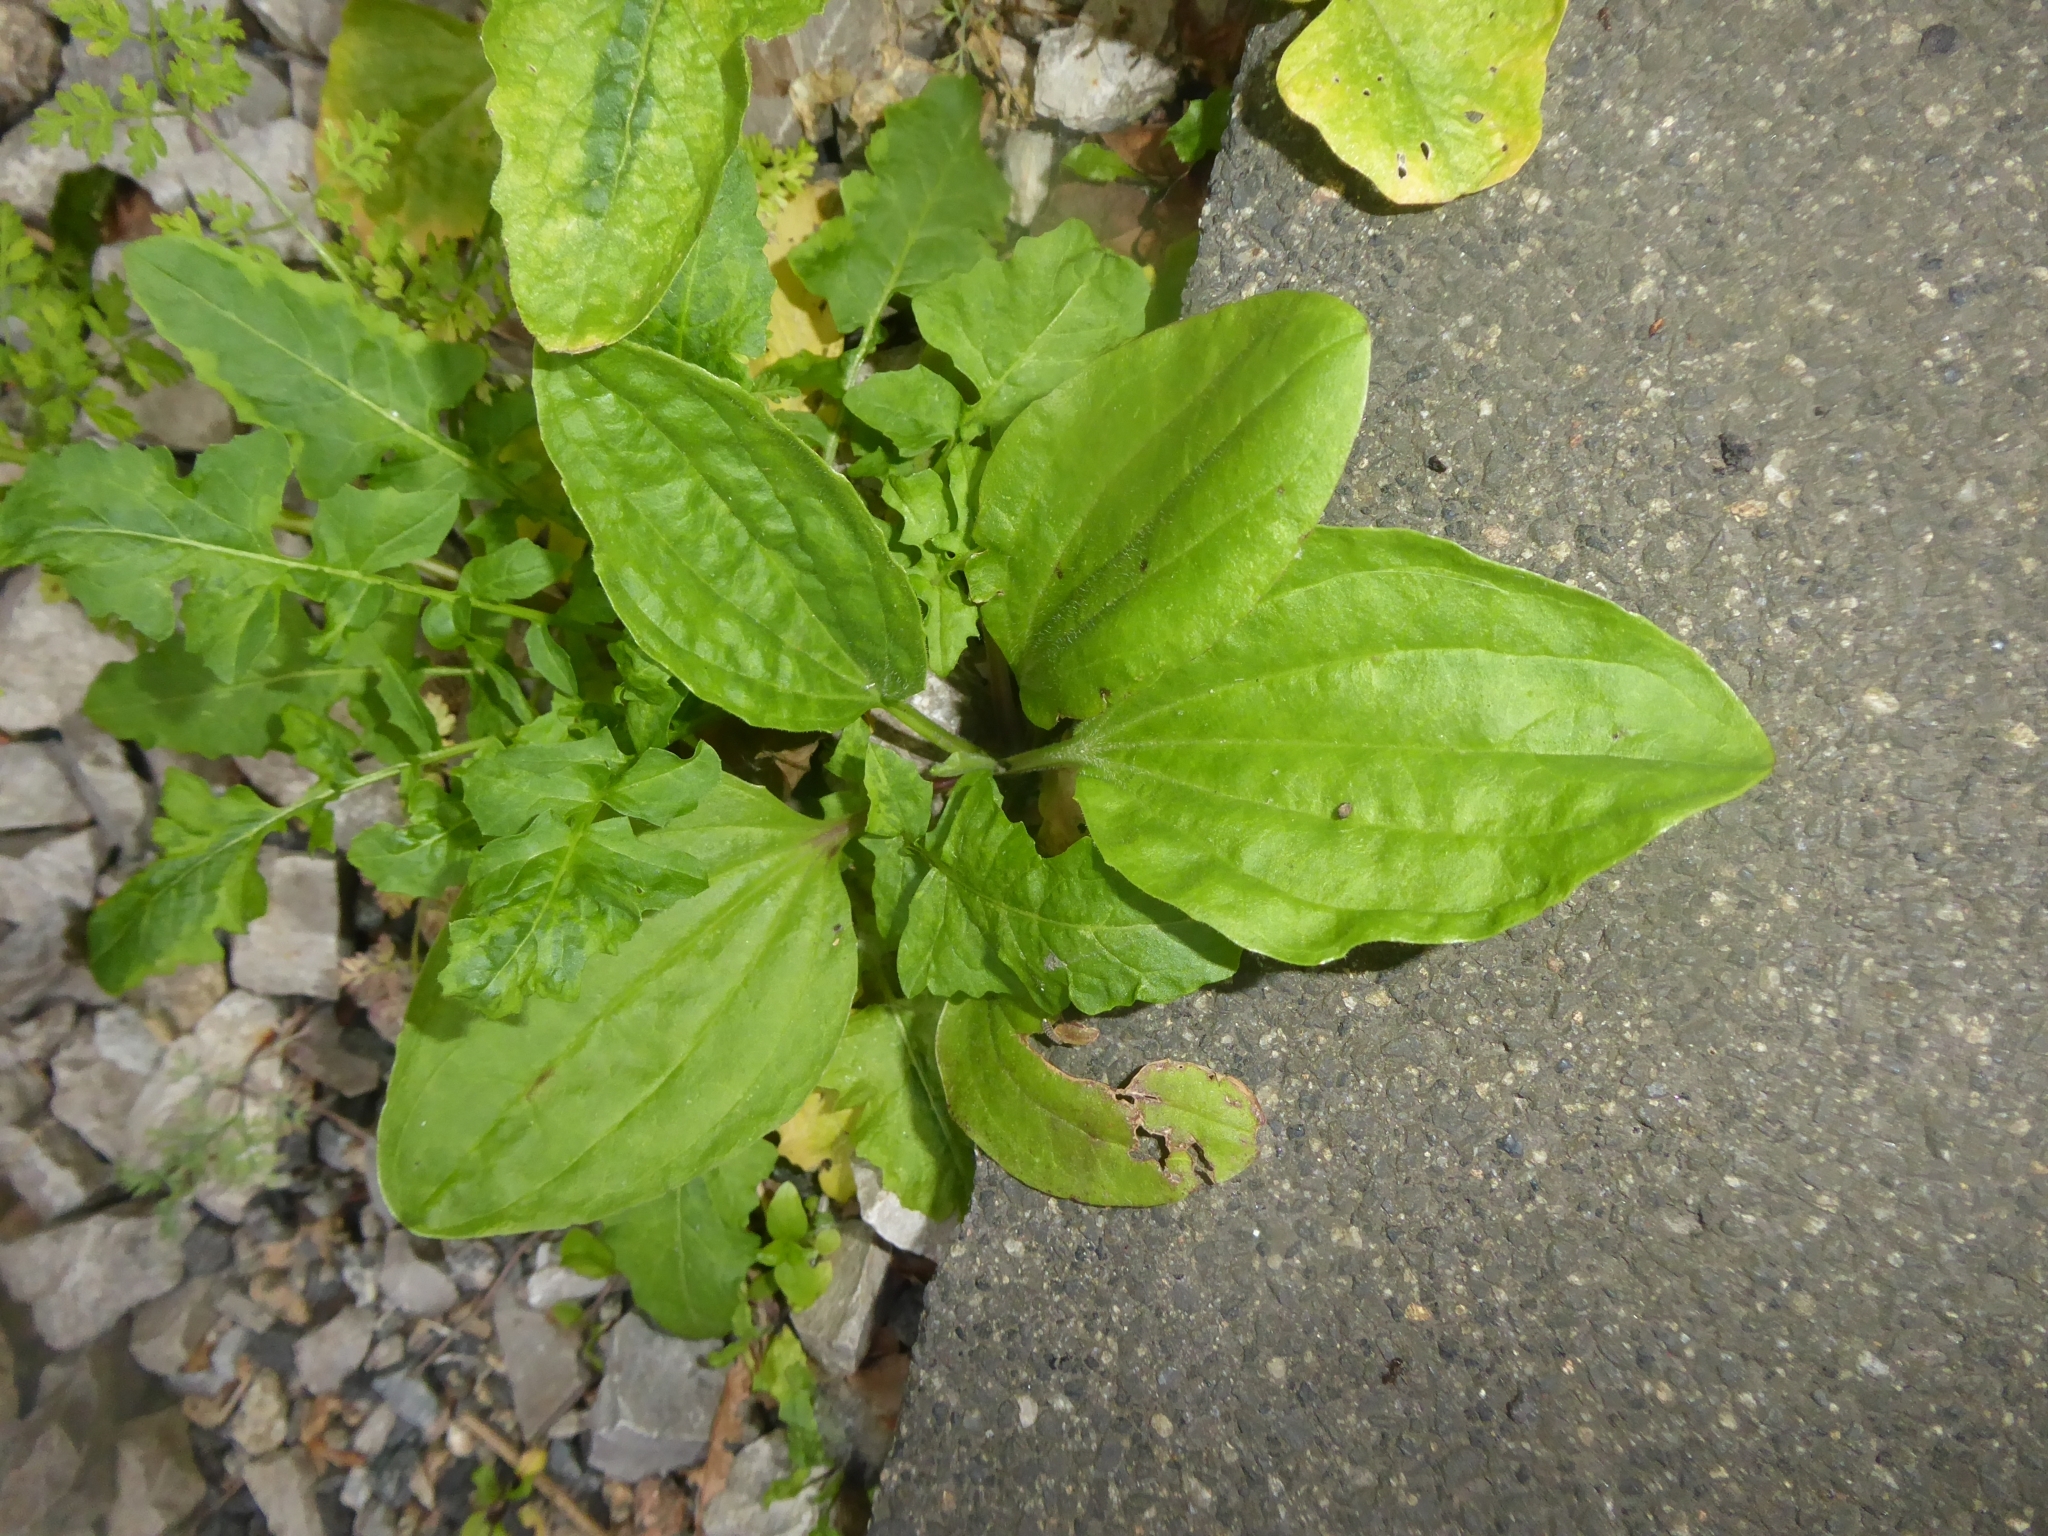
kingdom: Plantae
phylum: Tracheophyta
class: Magnoliopsida
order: Lamiales
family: Plantaginaceae
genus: Plantago
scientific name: Plantago major
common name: Common plantain
